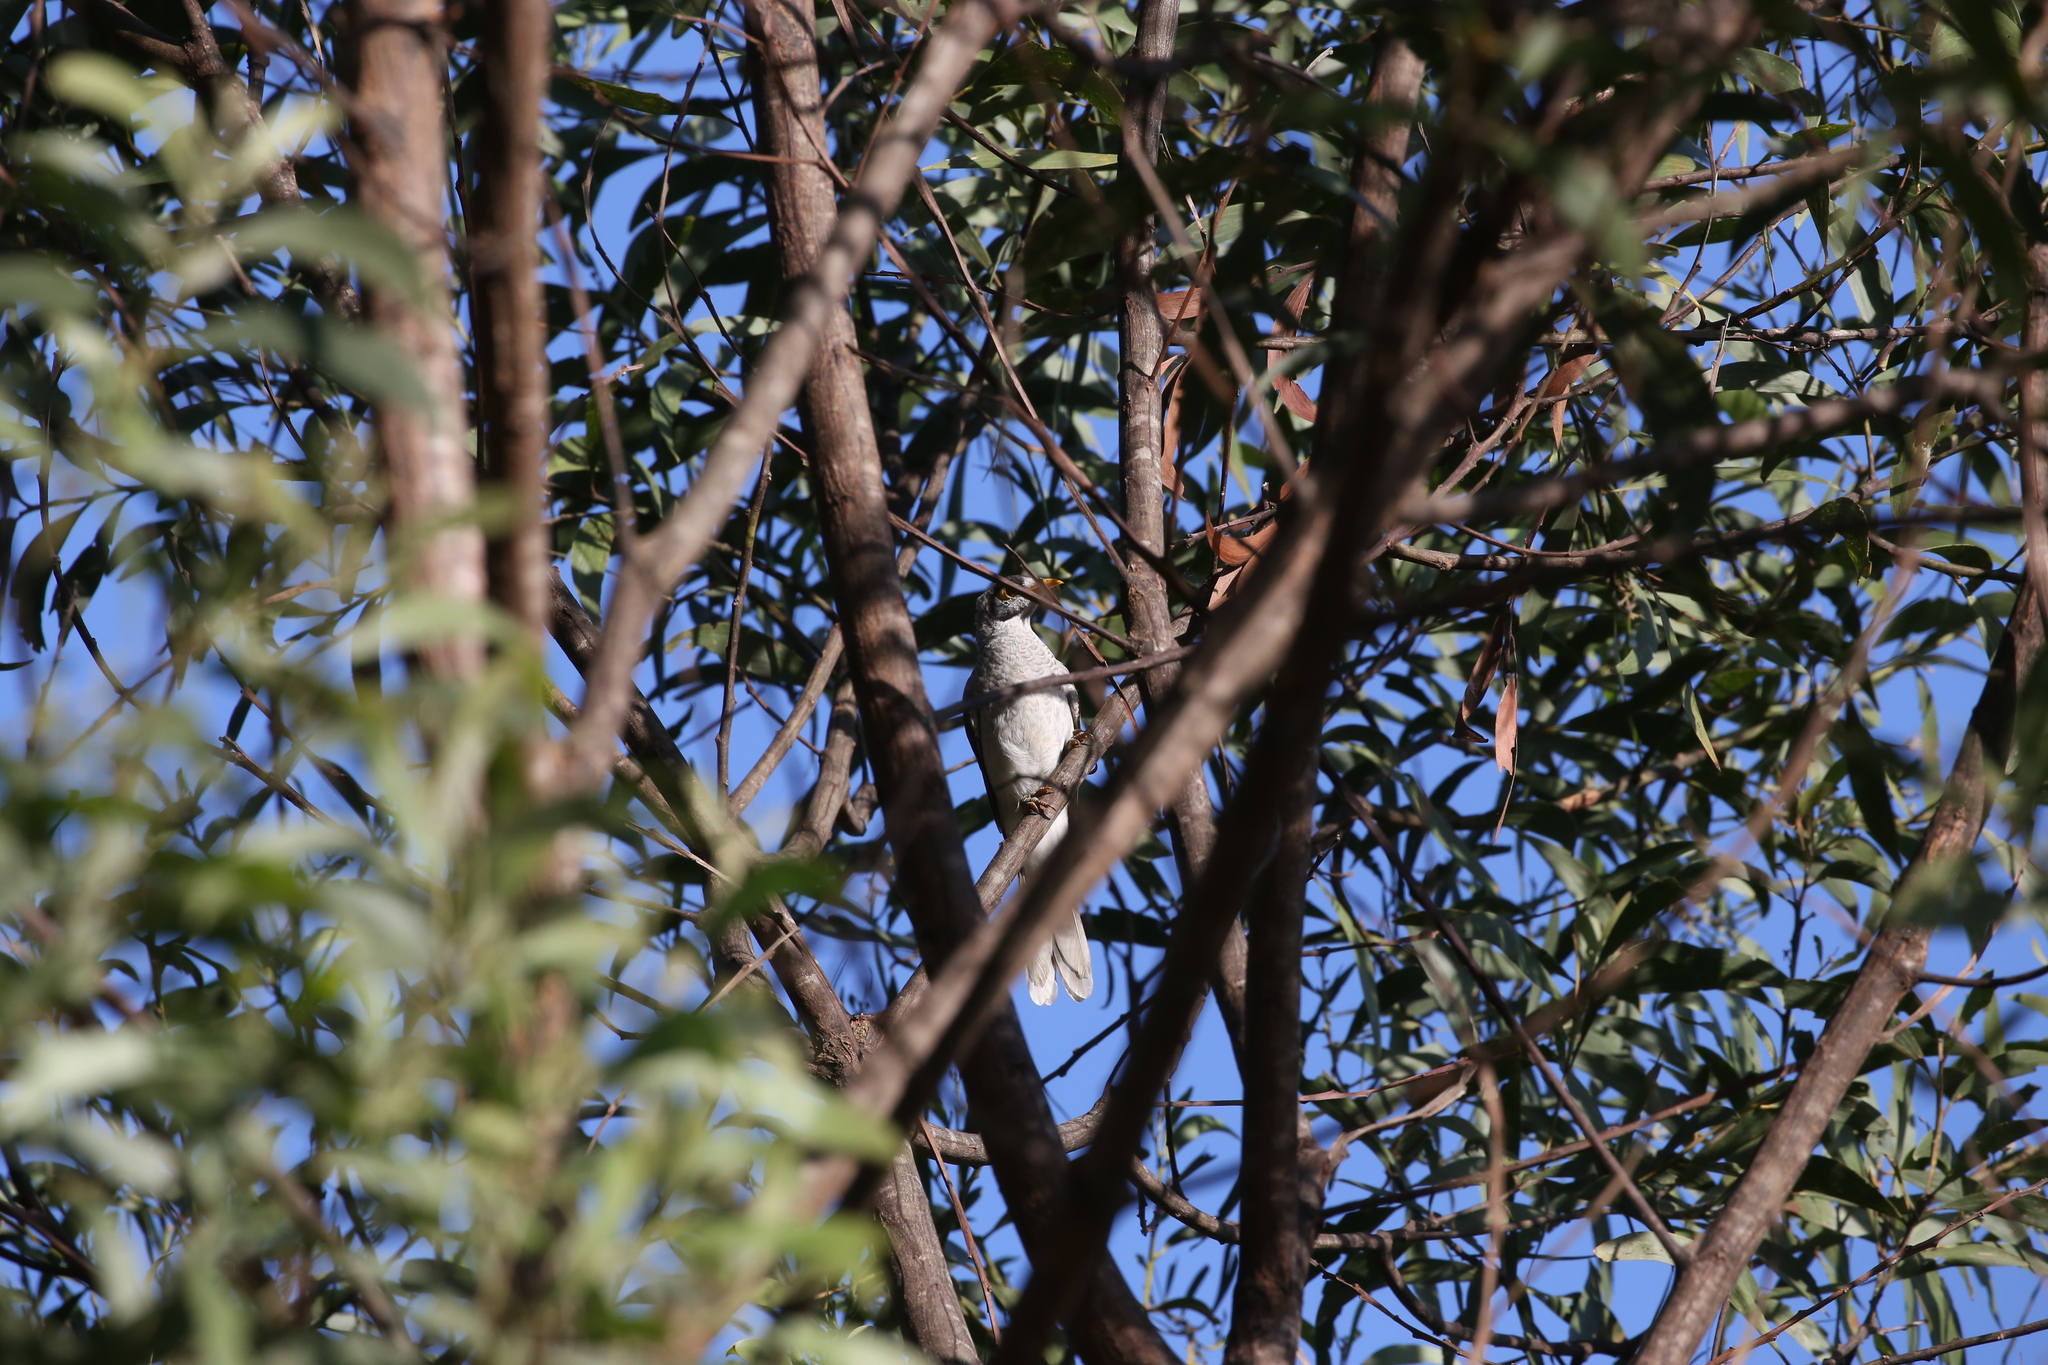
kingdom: Animalia
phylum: Chordata
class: Aves
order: Passeriformes
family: Meliphagidae
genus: Manorina
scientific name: Manorina melanocephala
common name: Noisy miner
